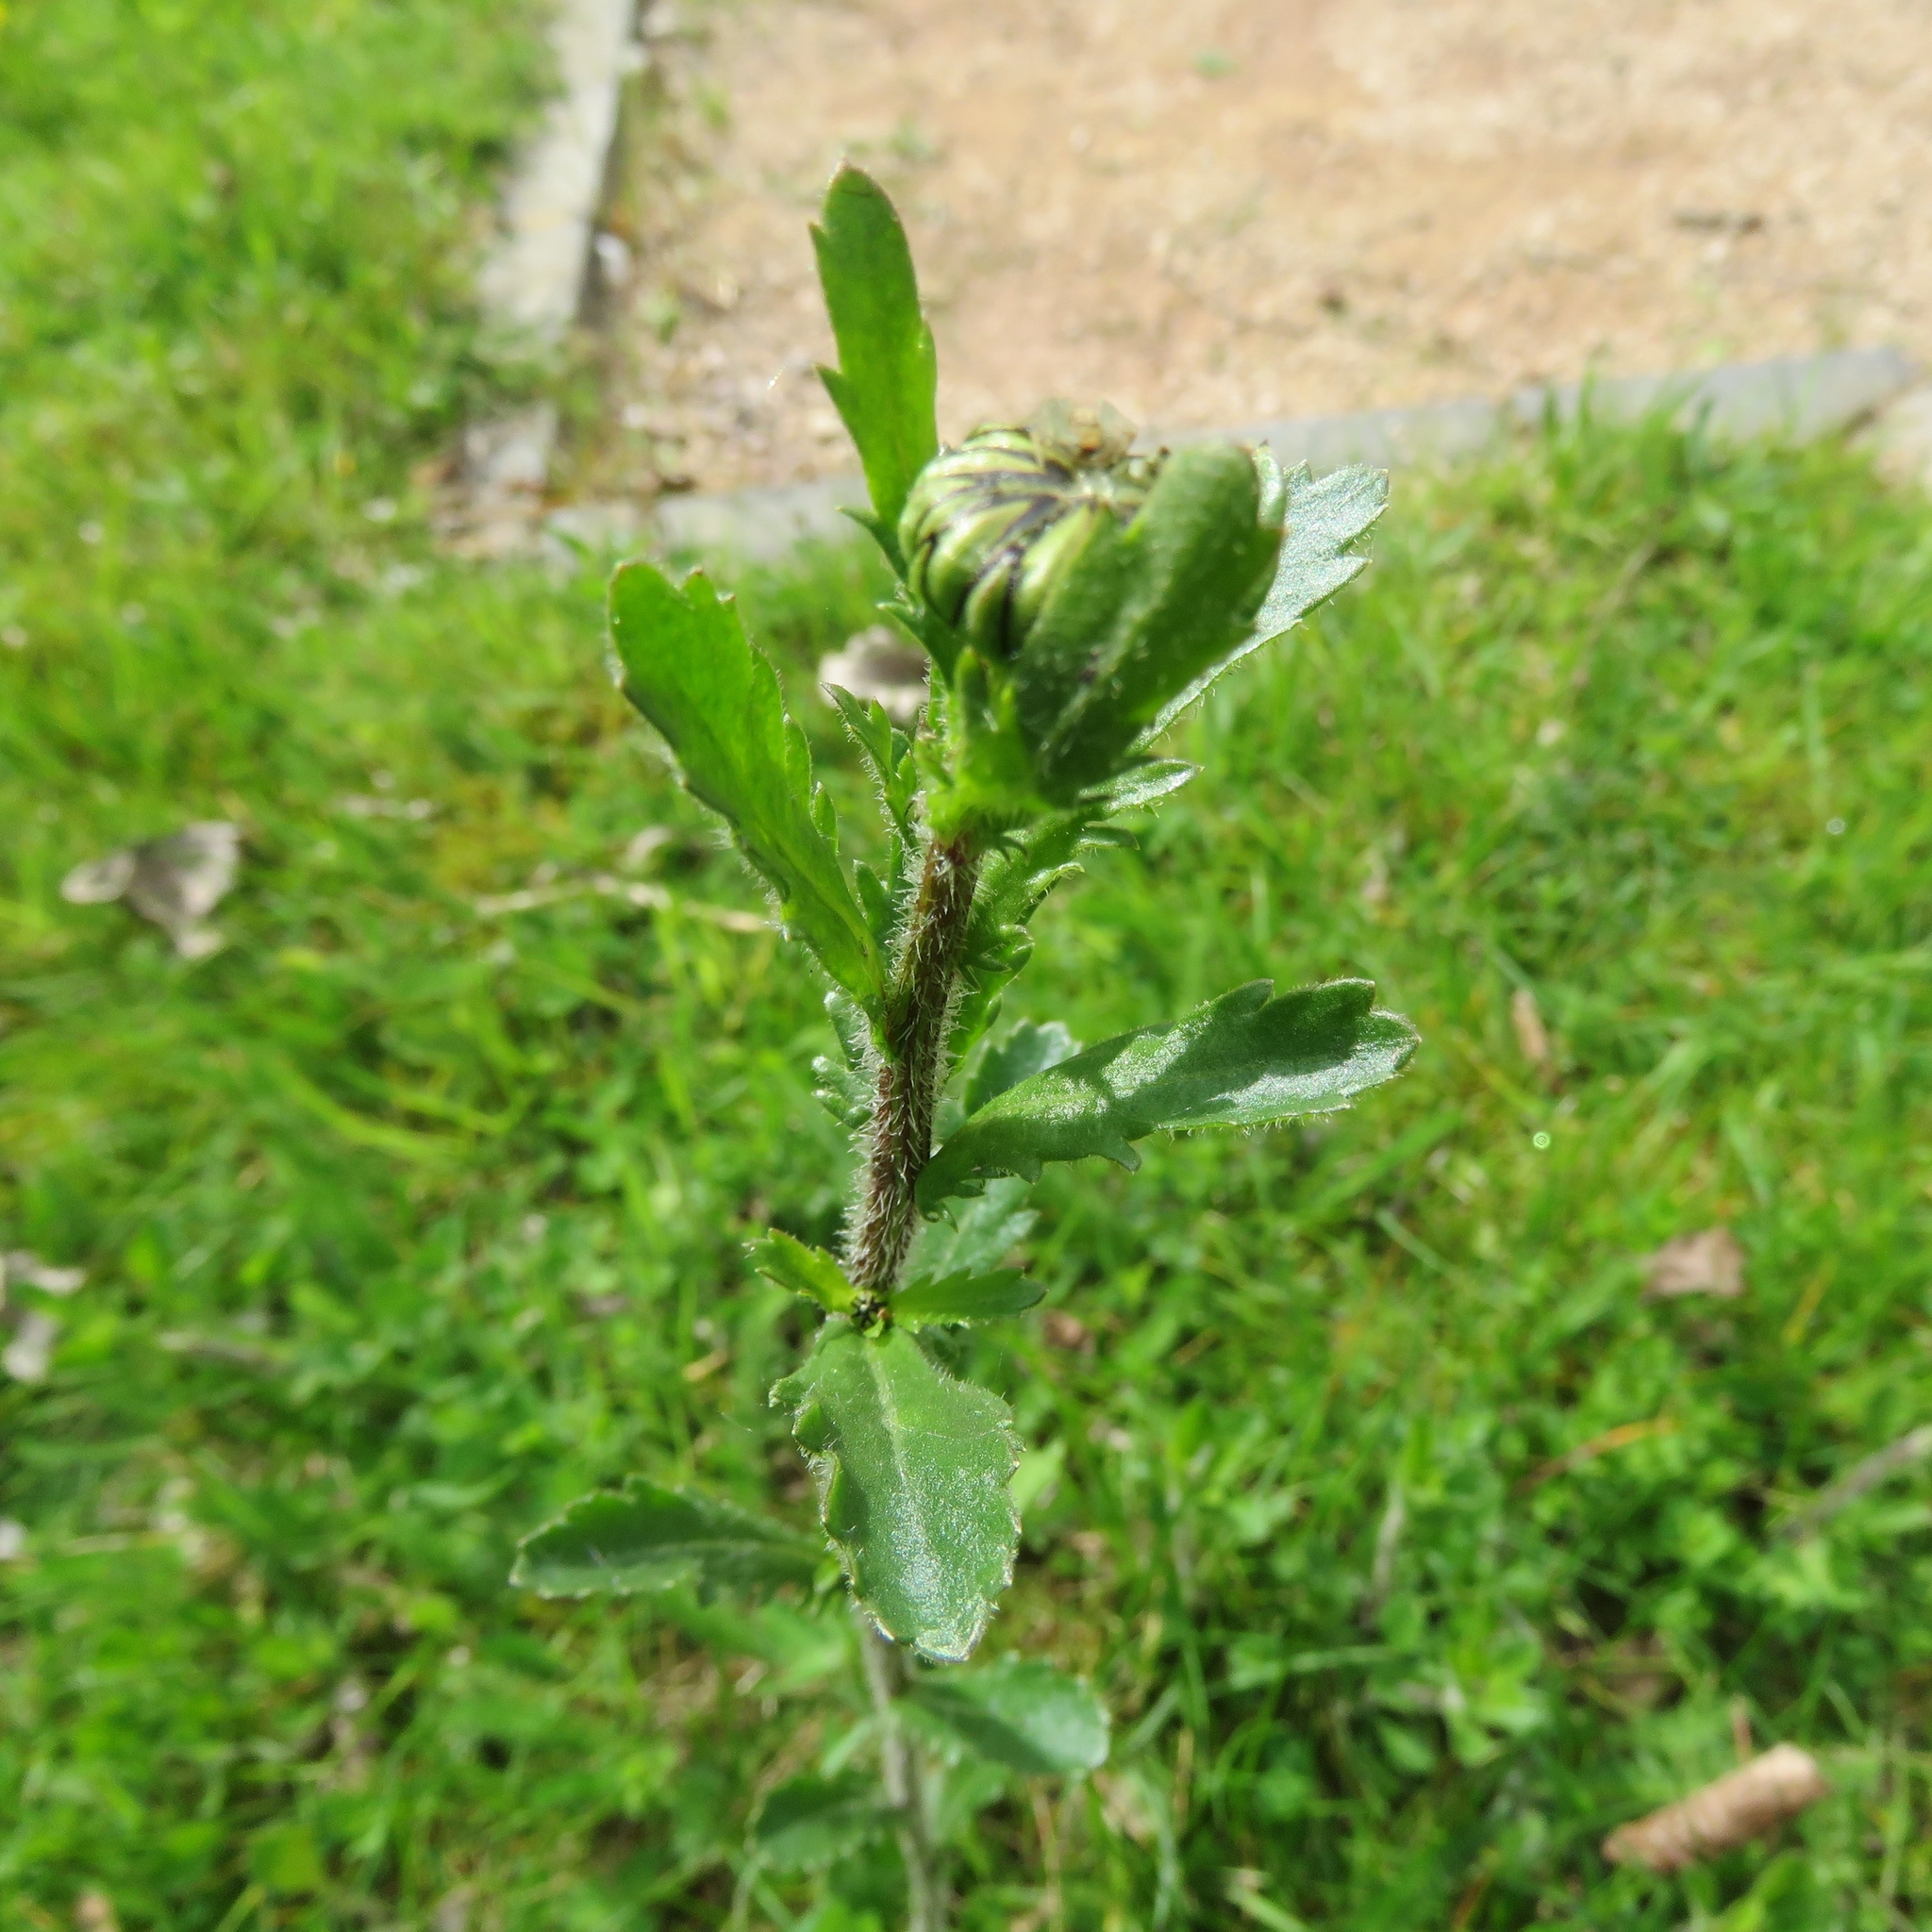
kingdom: Plantae
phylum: Tracheophyta
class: Magnoliopsida
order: Asterales
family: Asteraceae
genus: Leucanthemum
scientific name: Leucanthemum vulgare
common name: Oxeye daisy
